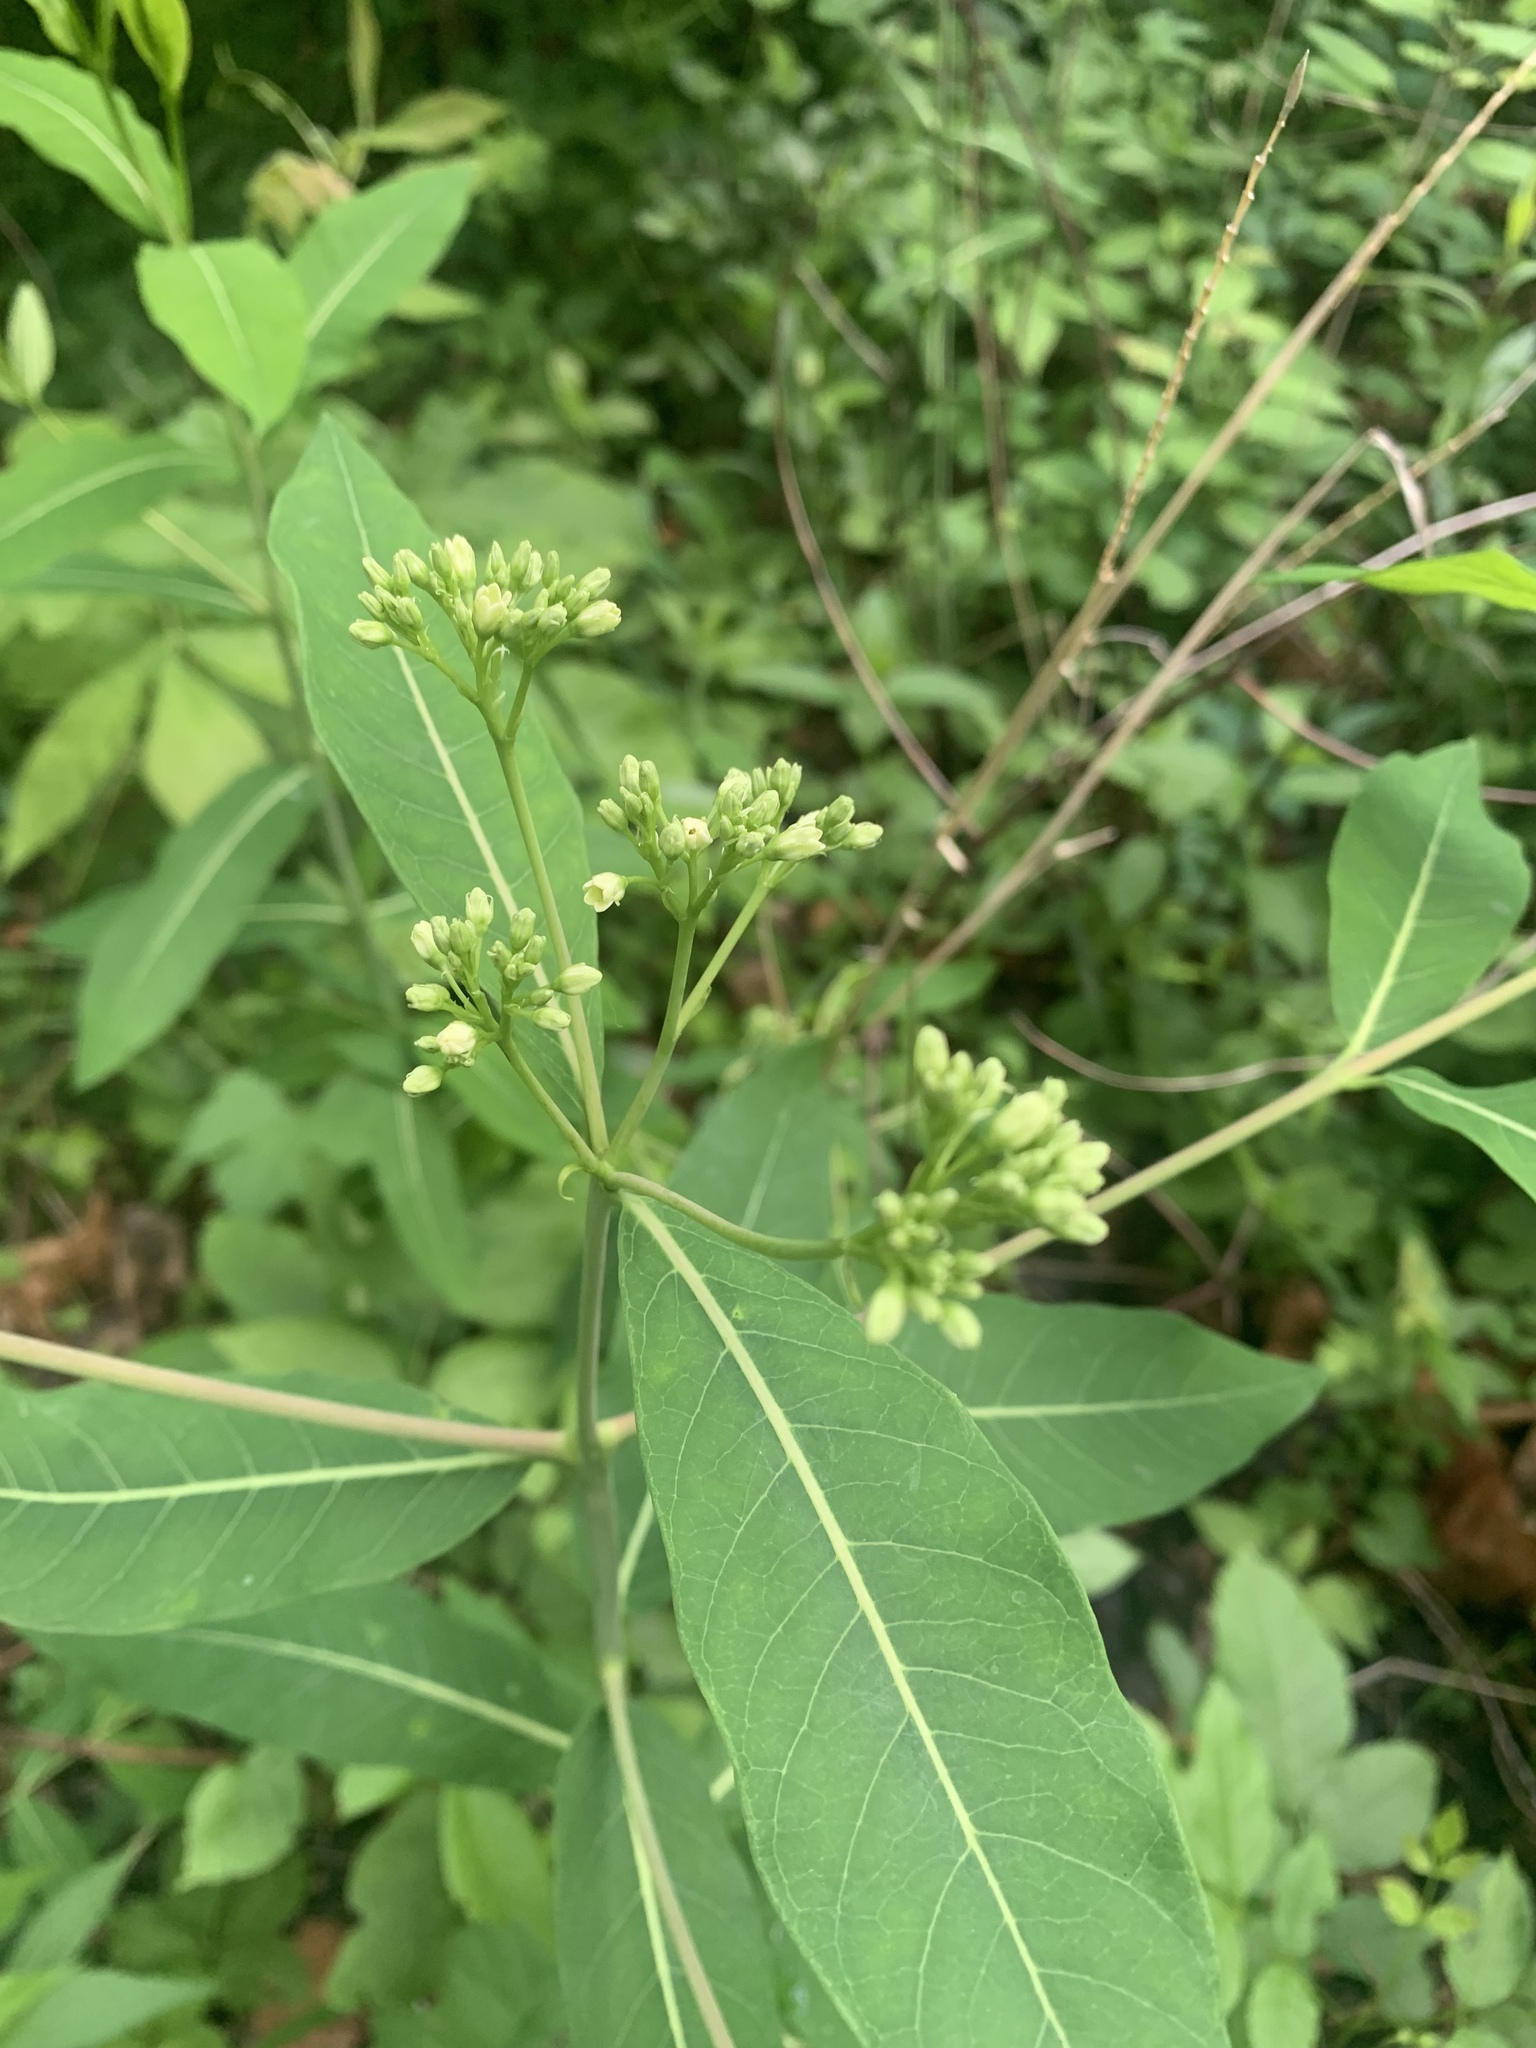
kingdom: Plantae
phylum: Tracheophyta
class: Magnoliopsida
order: Gentianales
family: Apocynaceae
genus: Apocynum
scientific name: Apocynum cannabinum
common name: Hemp dogbane
